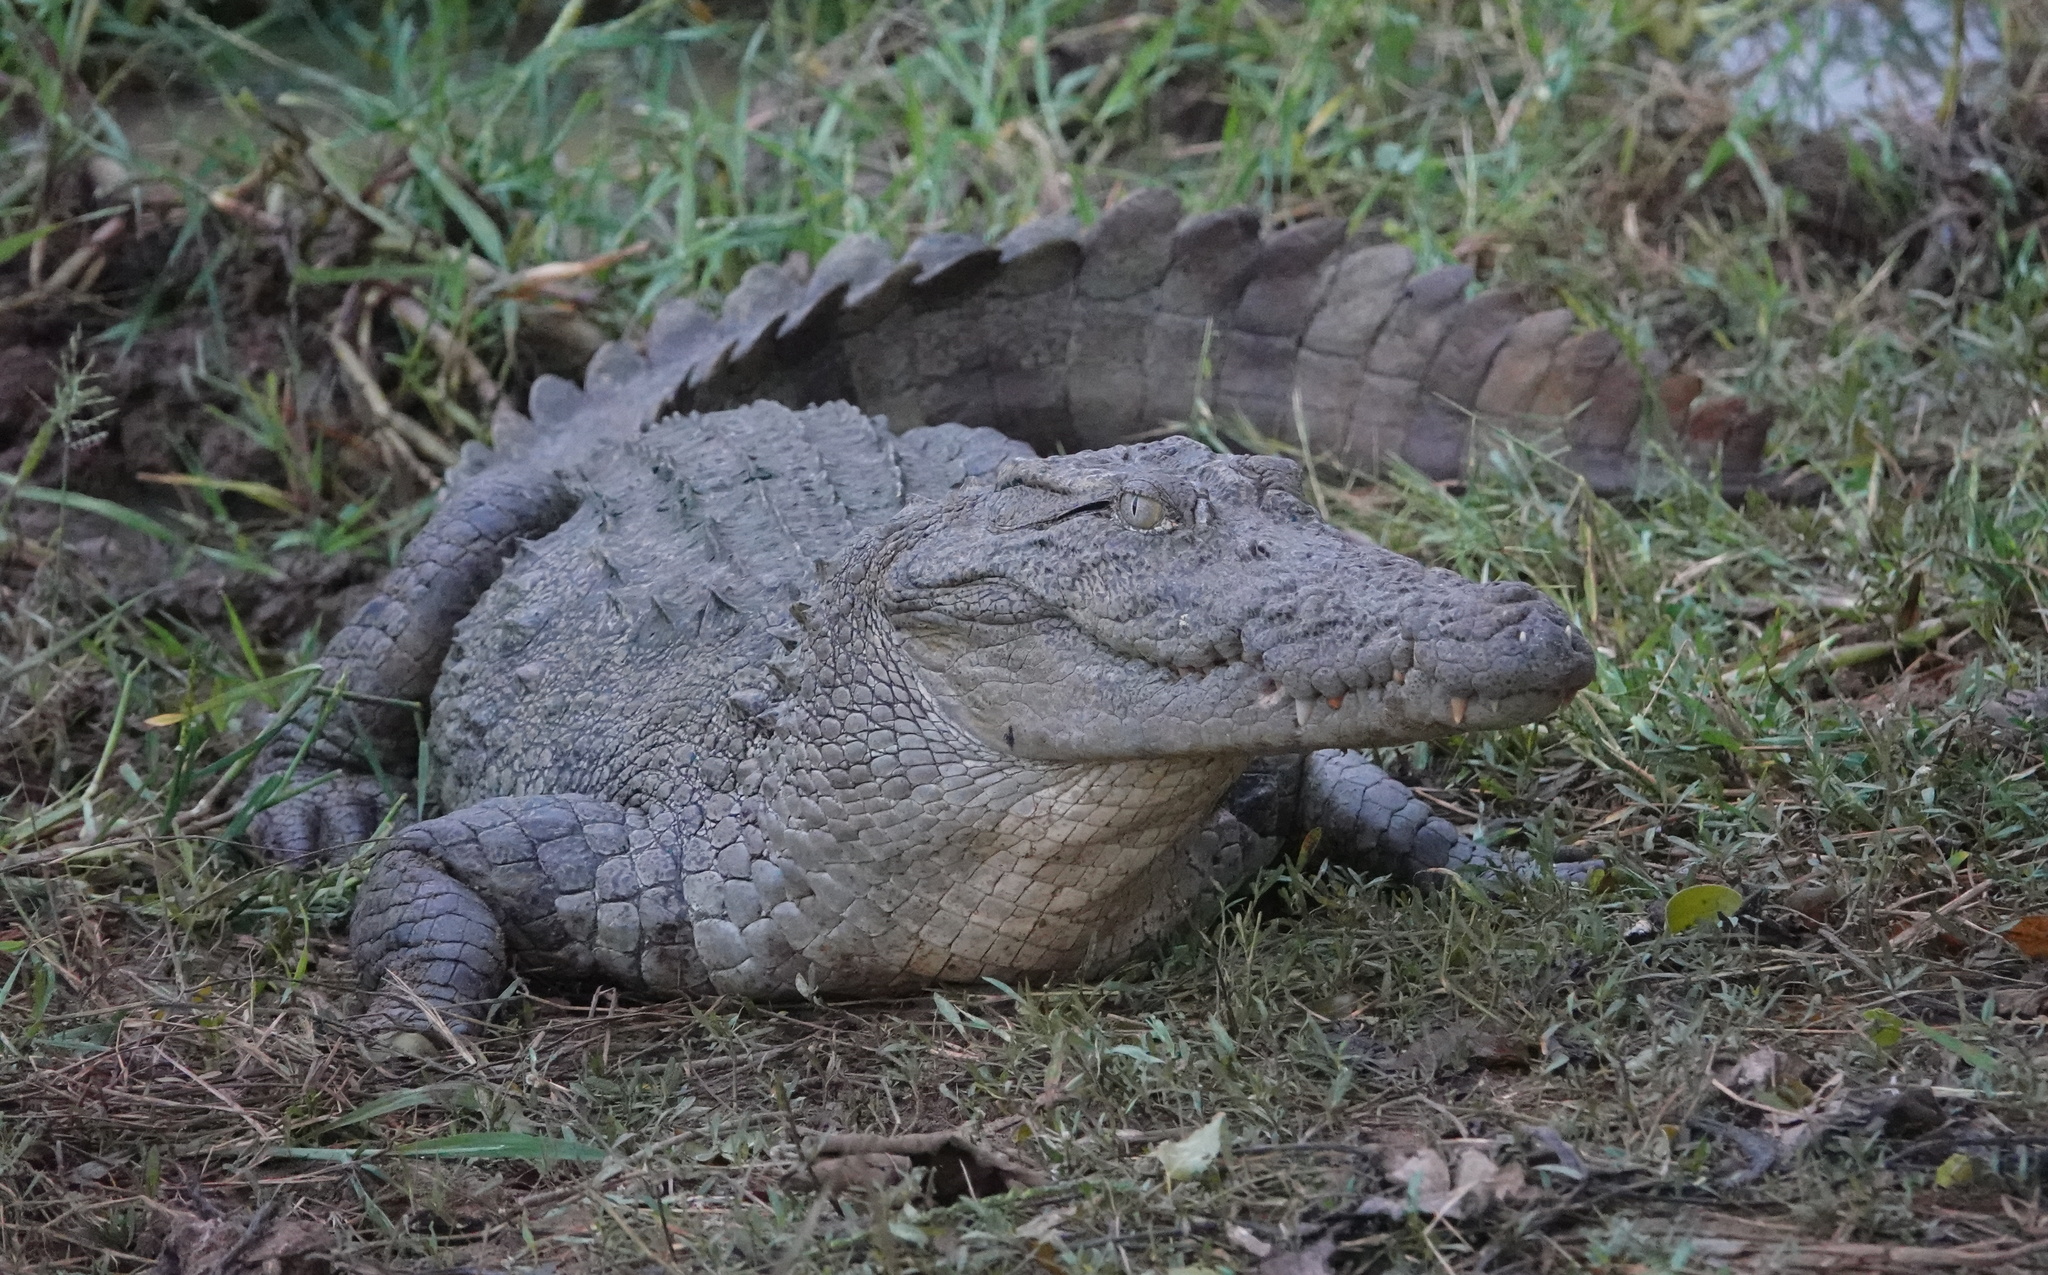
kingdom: Animalia
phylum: Chordata
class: Crocodylia
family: Crocodylidae
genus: Crocodylus
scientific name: Crocodylus palustris
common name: Mugger crocodile
